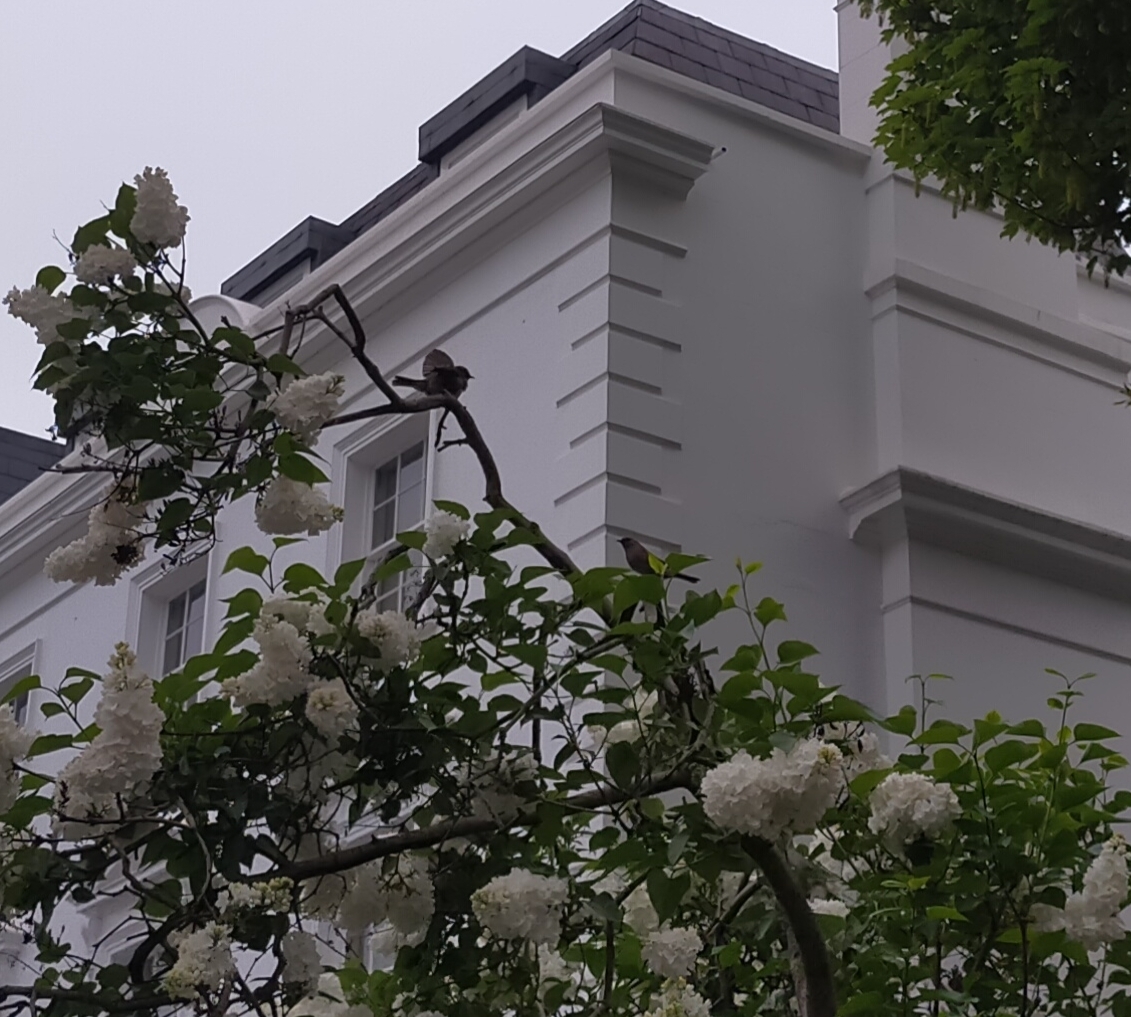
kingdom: Animalia
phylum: Chordata
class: Aves
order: Passeriformes
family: Prunellidae
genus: Prunella
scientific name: Prunella modularis
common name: Dunnock
